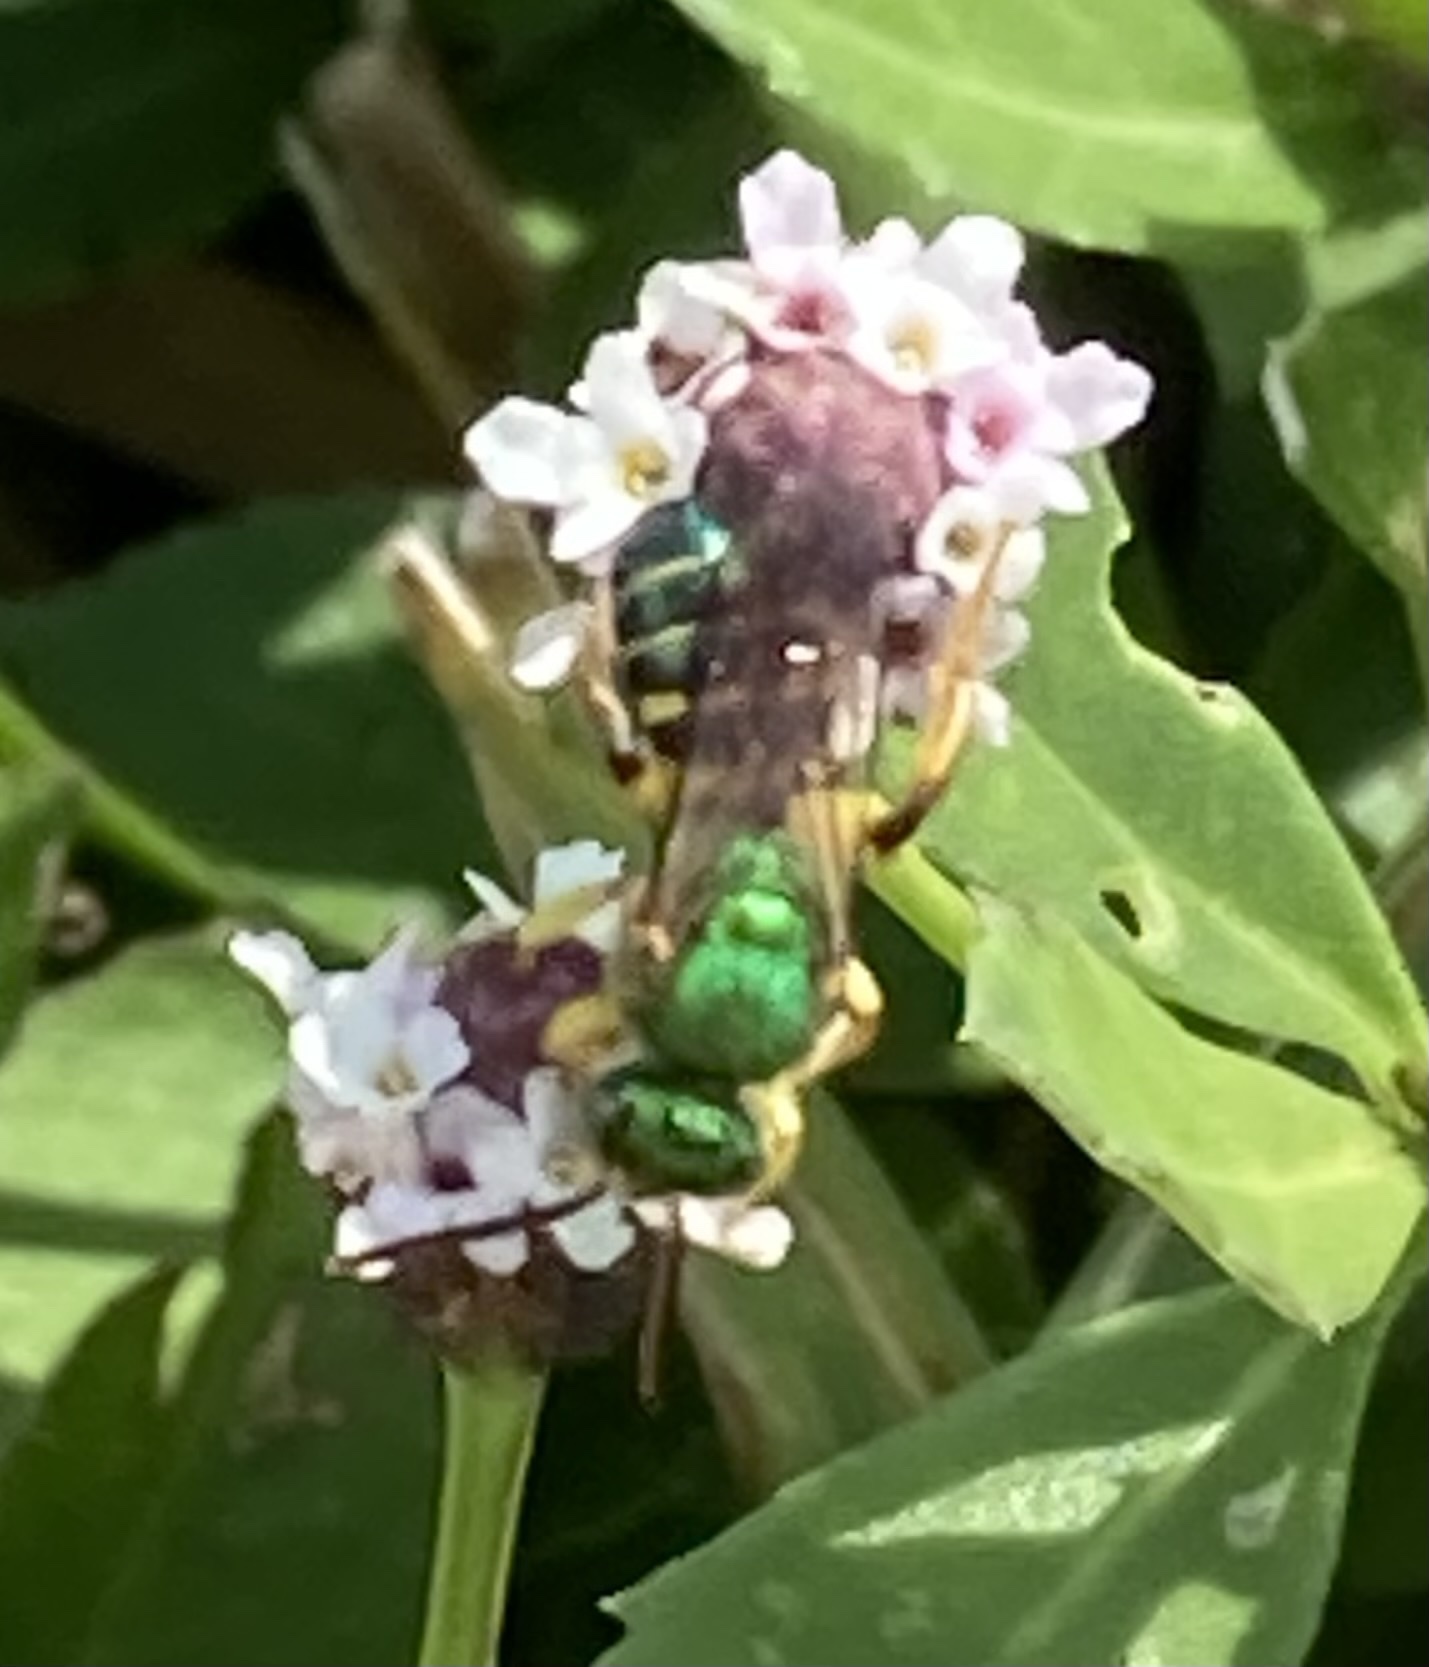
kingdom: Animalia
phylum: Arthropoda
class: Insecta
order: Hymenoptera
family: Halictidae
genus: Agapostemon
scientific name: Agapostemon poeyi
